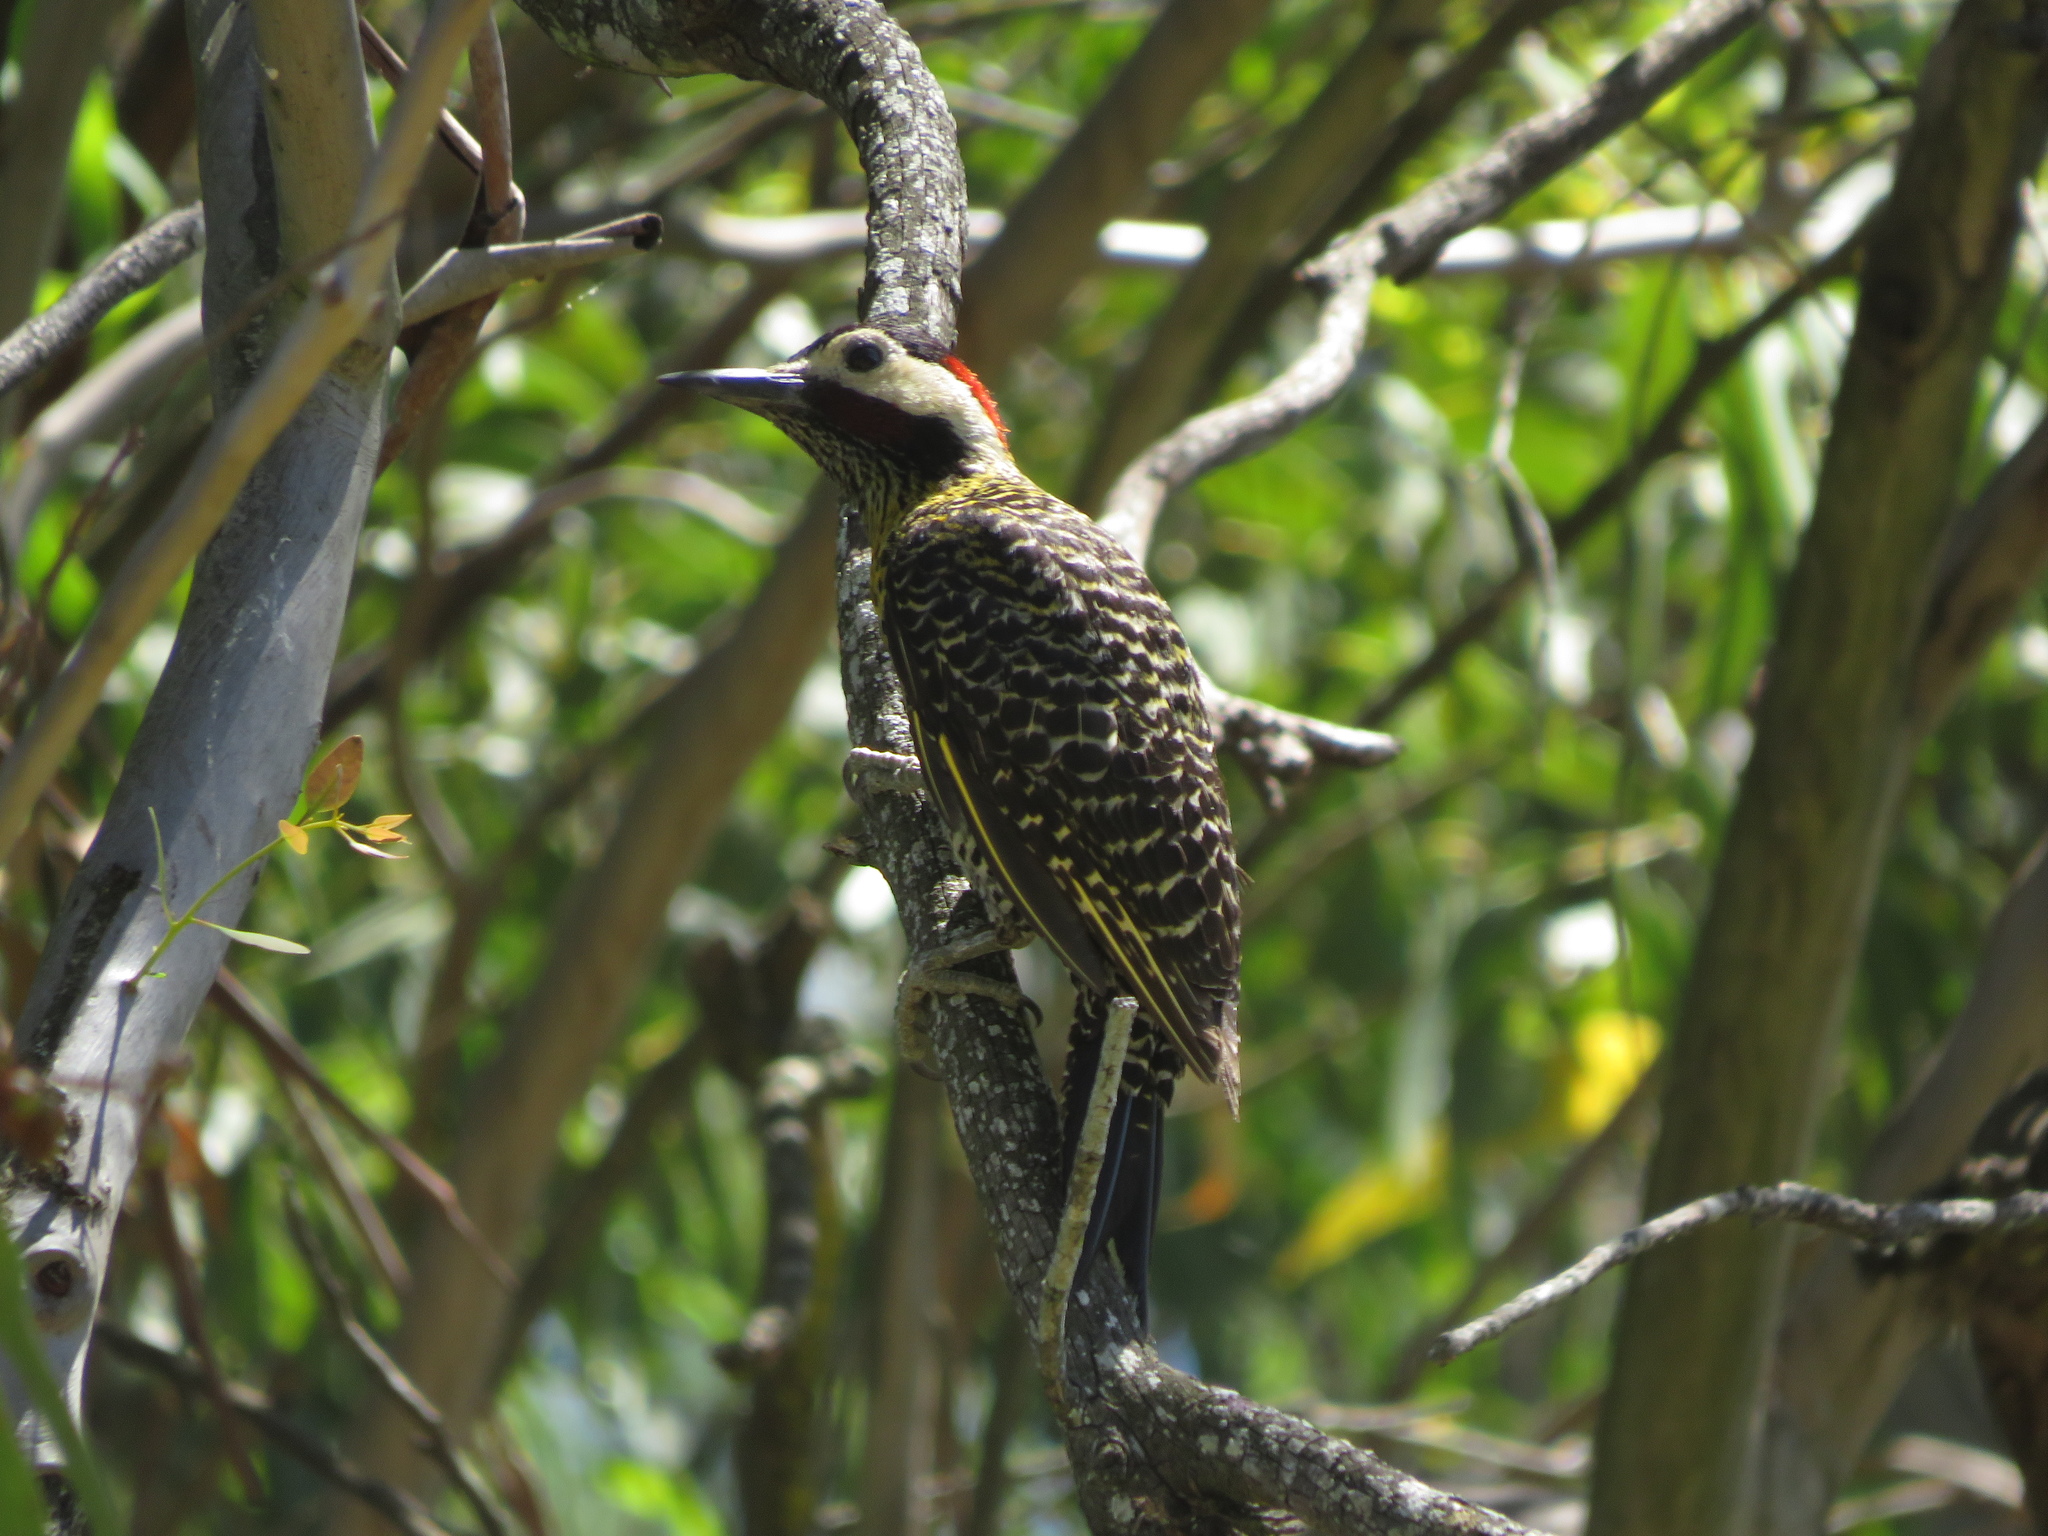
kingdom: Animalia
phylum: Chordata
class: Aves
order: Piciformes
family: Picidae
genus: Colaptes
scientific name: Colaptes melanochloros
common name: Green-barred woodpecker
